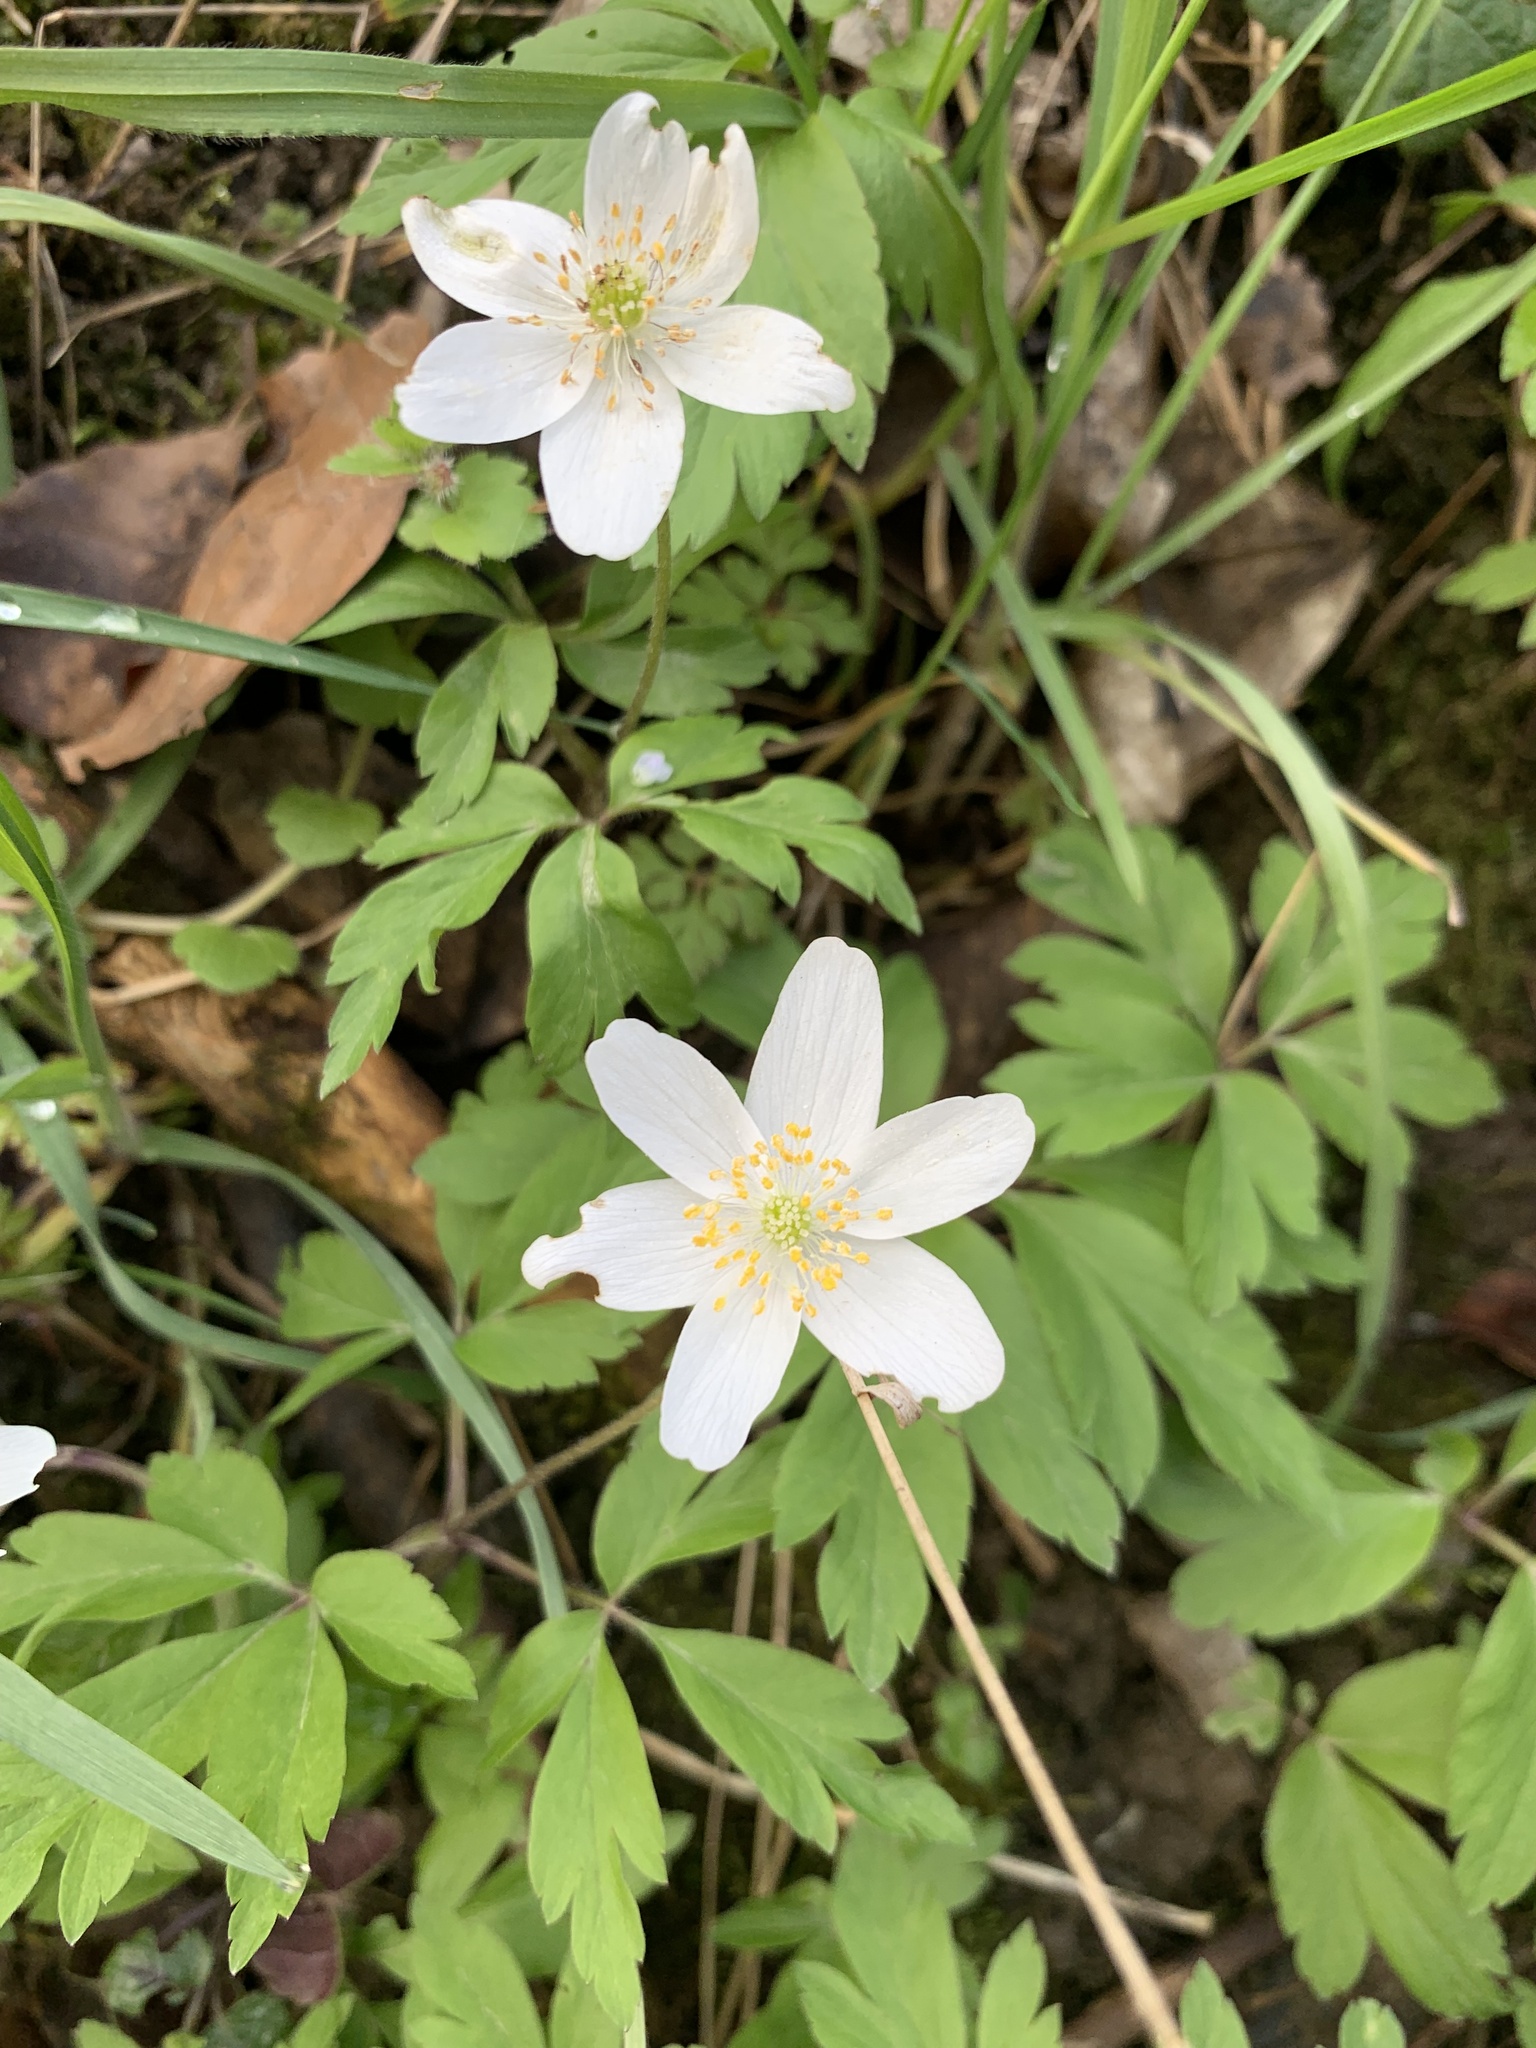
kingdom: Plantae
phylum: Tracheophyta
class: Magnoliopsida
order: Ranunculales
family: Ranunculaceae
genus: Anemone
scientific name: Anemone nemorosa
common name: Wood anemone
